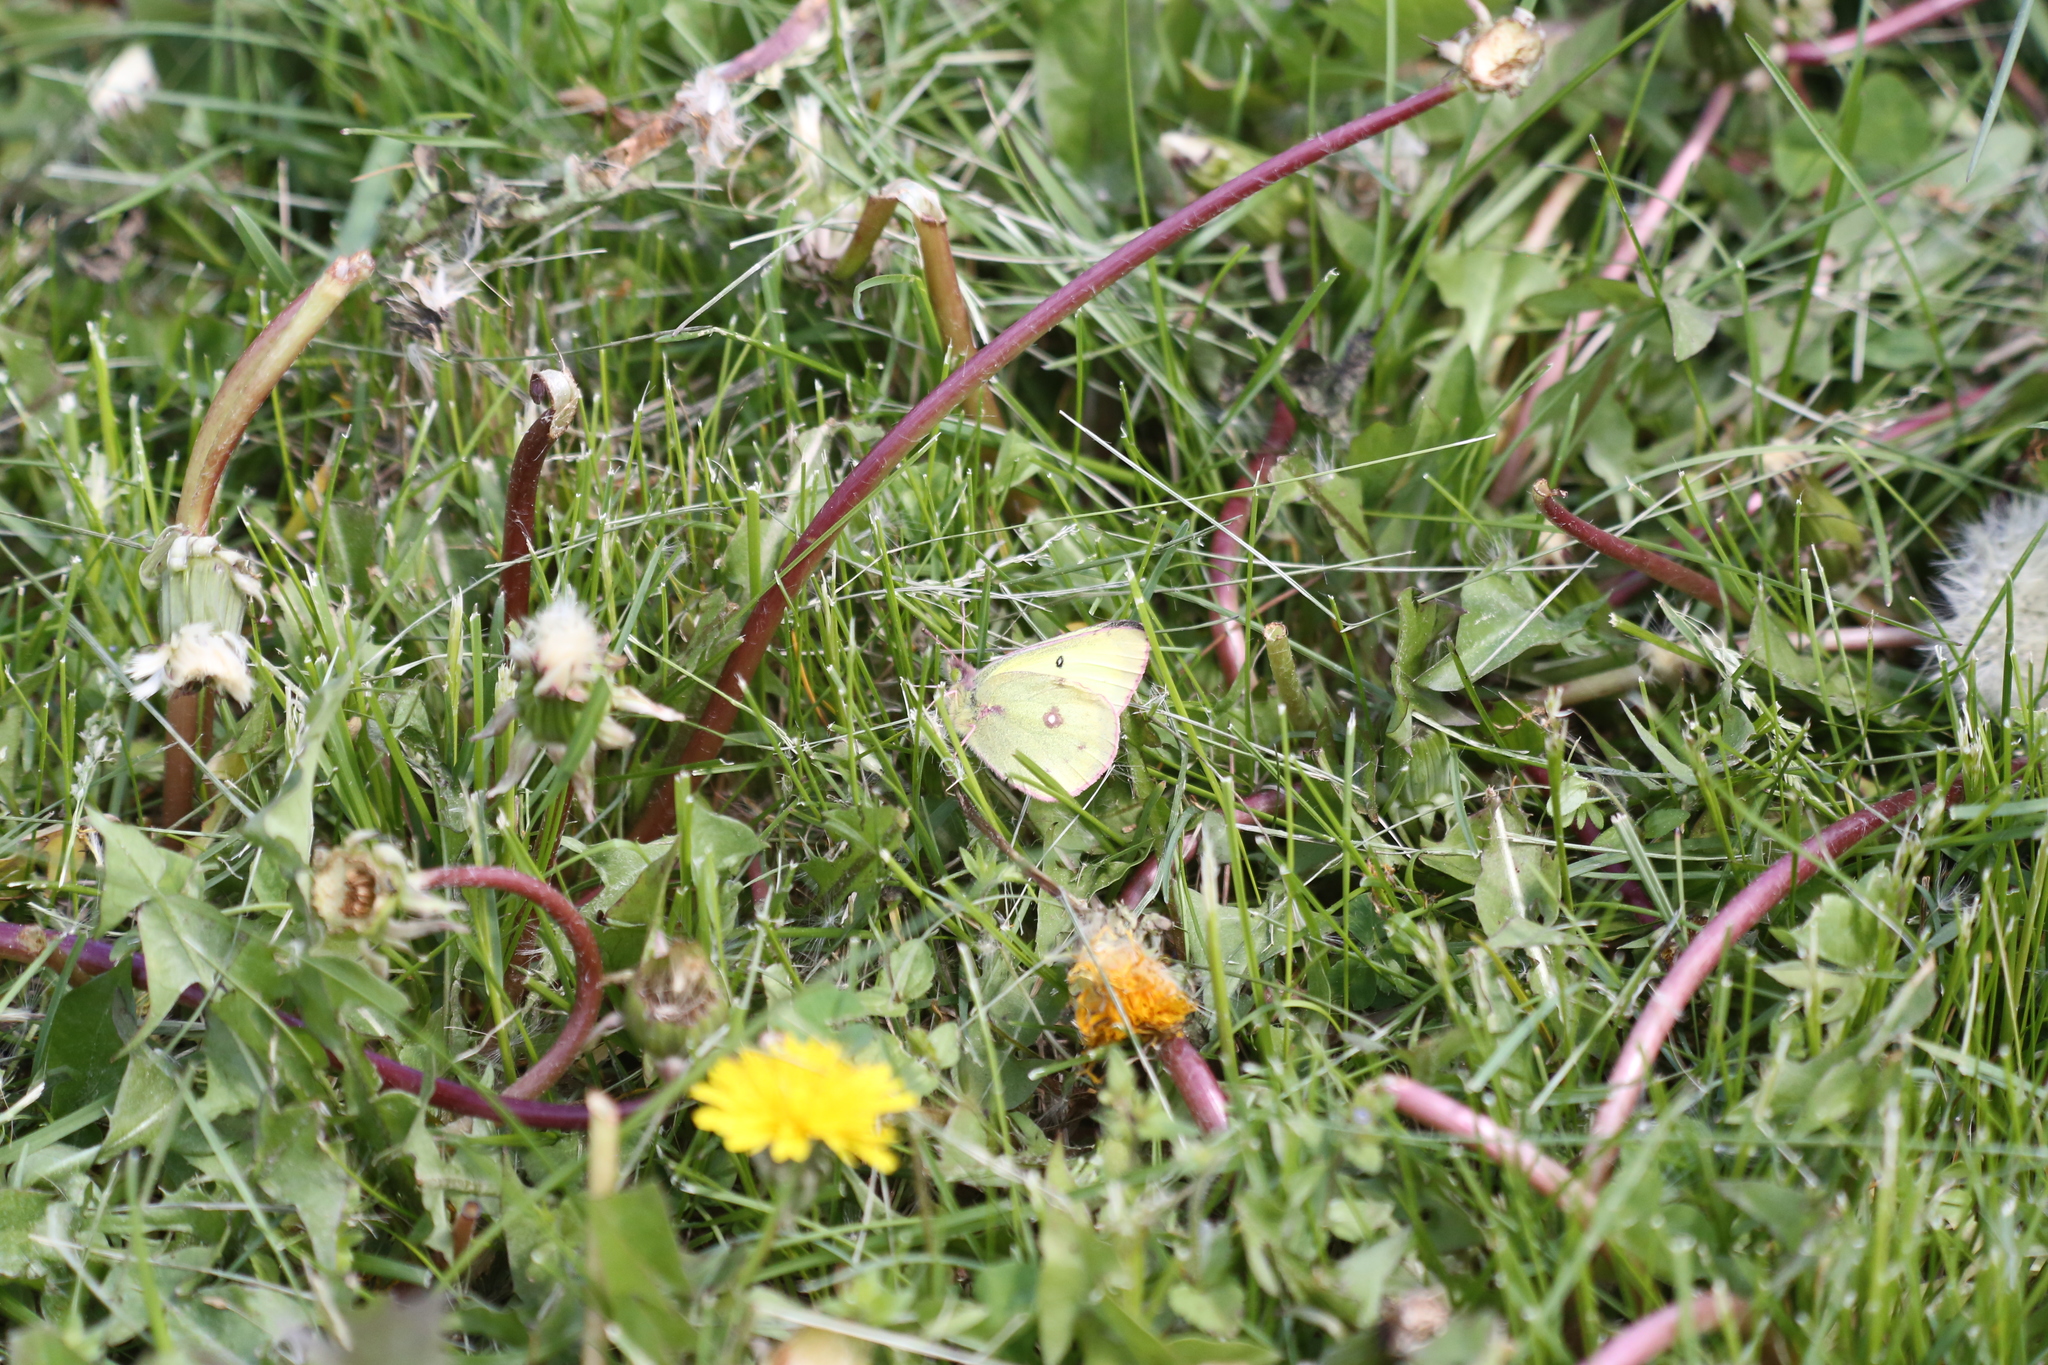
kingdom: Animalia
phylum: Arthropoda
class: Insecta
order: Lepidoptera
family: Pieridae
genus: Colias
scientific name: Colias philodice
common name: Clouded sulphur
